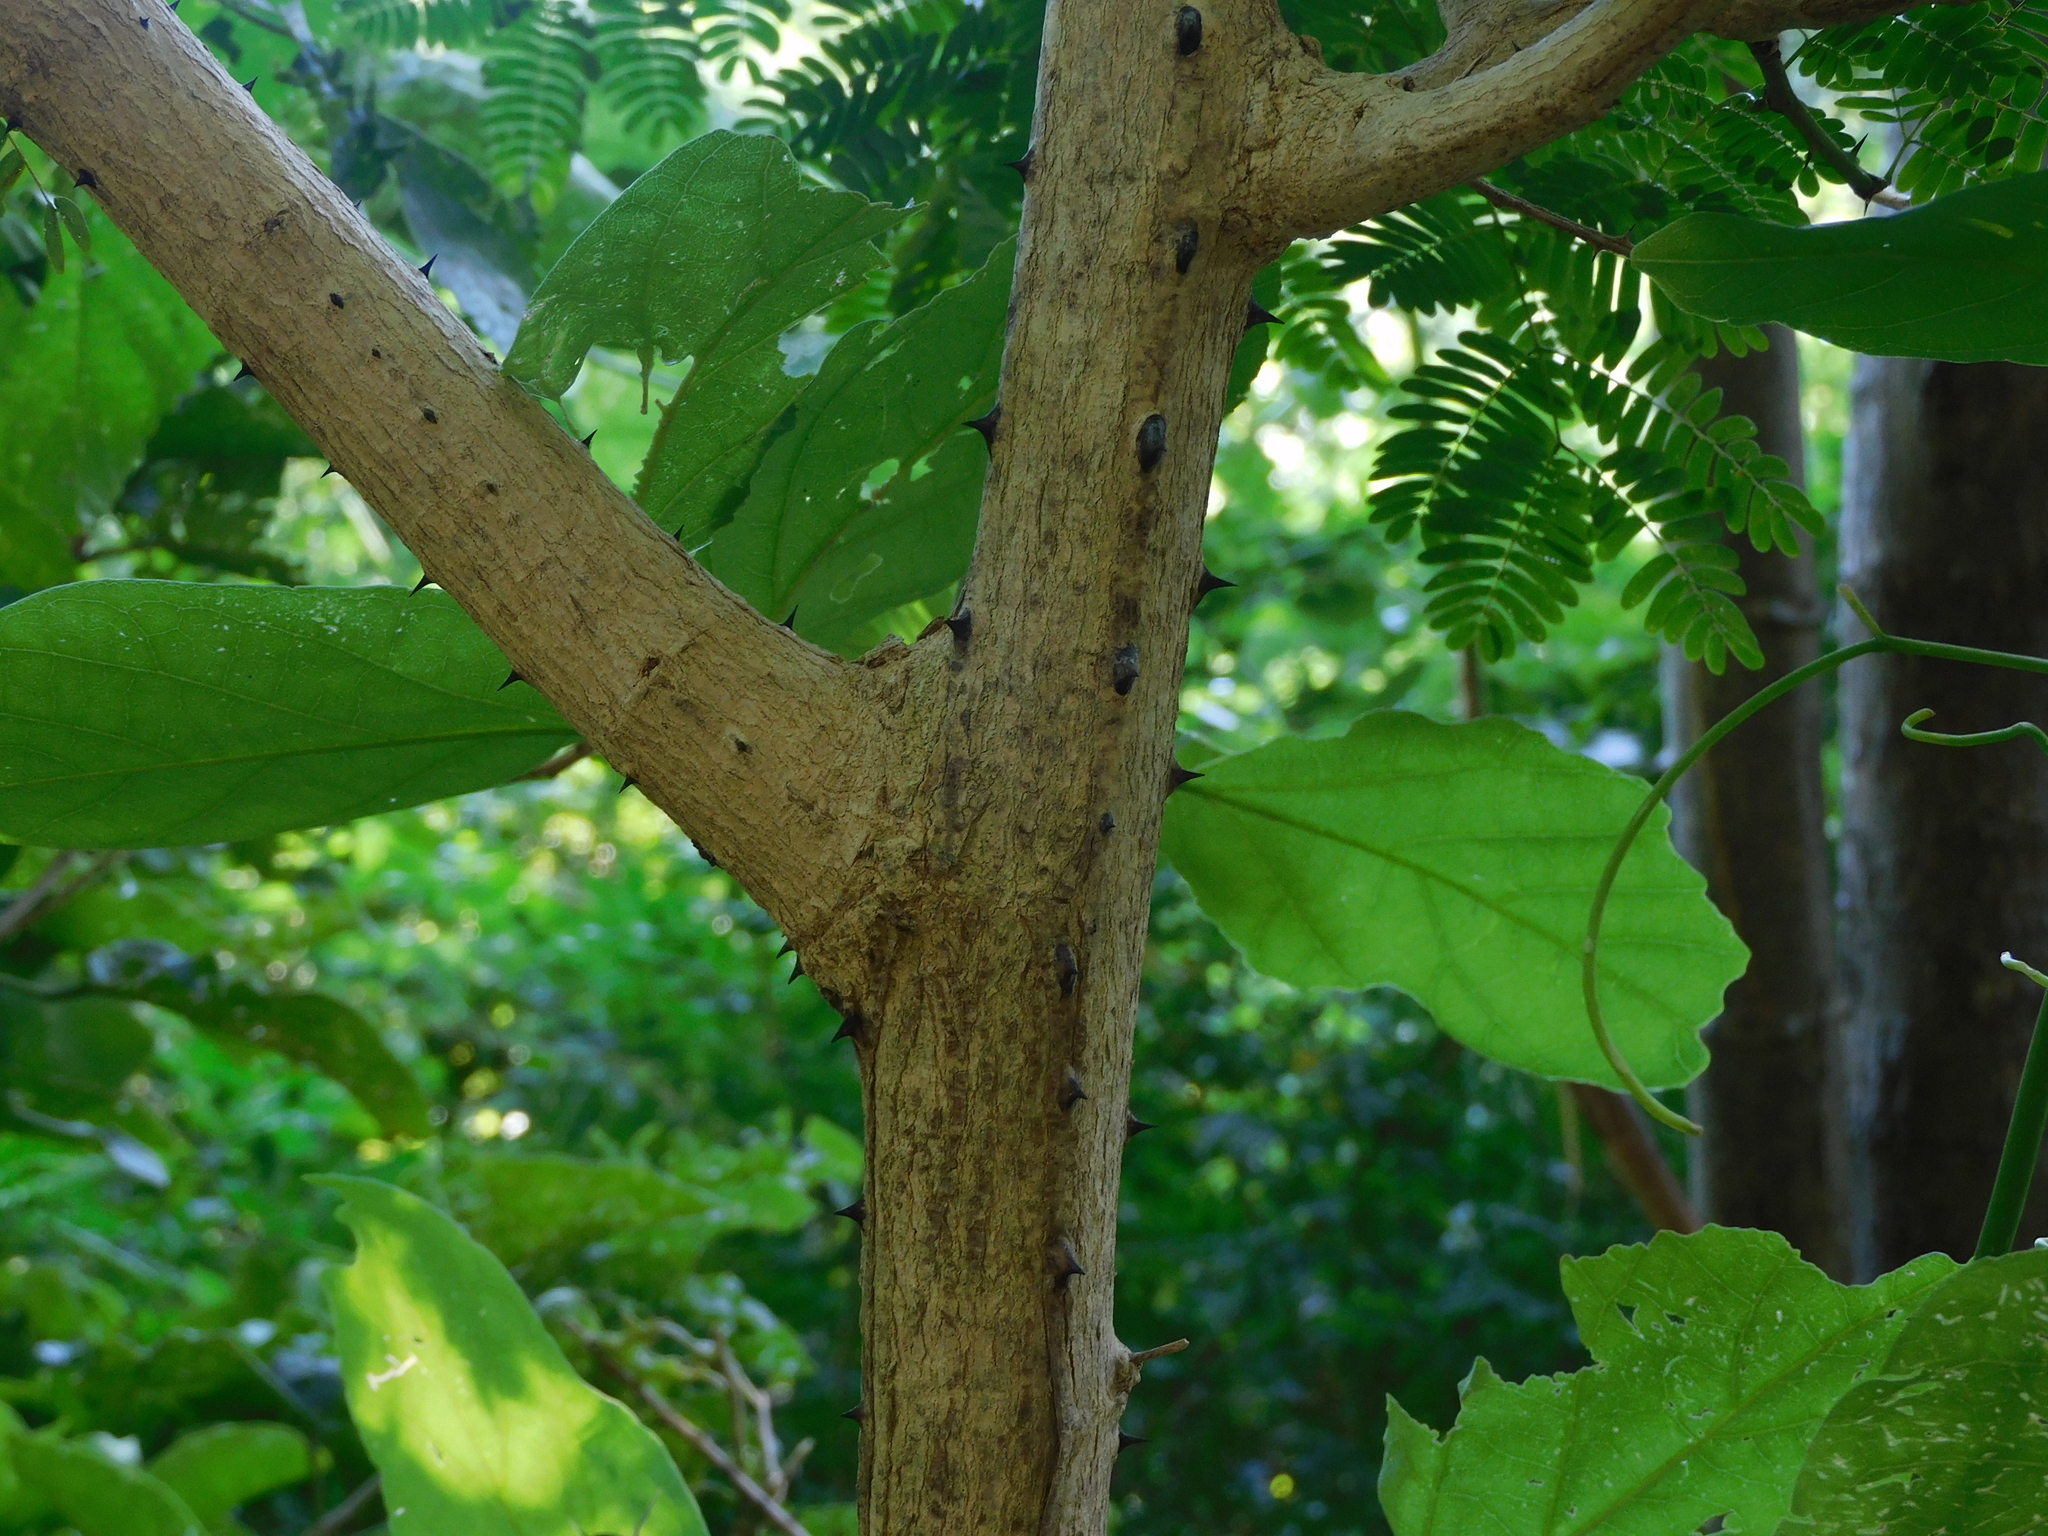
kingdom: Plantae
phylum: Tracheophyta
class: Magnoliopsida
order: Fabales
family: Fabaceae
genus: Senegalia
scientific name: Senegalia polyphylla
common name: White-tamarind
